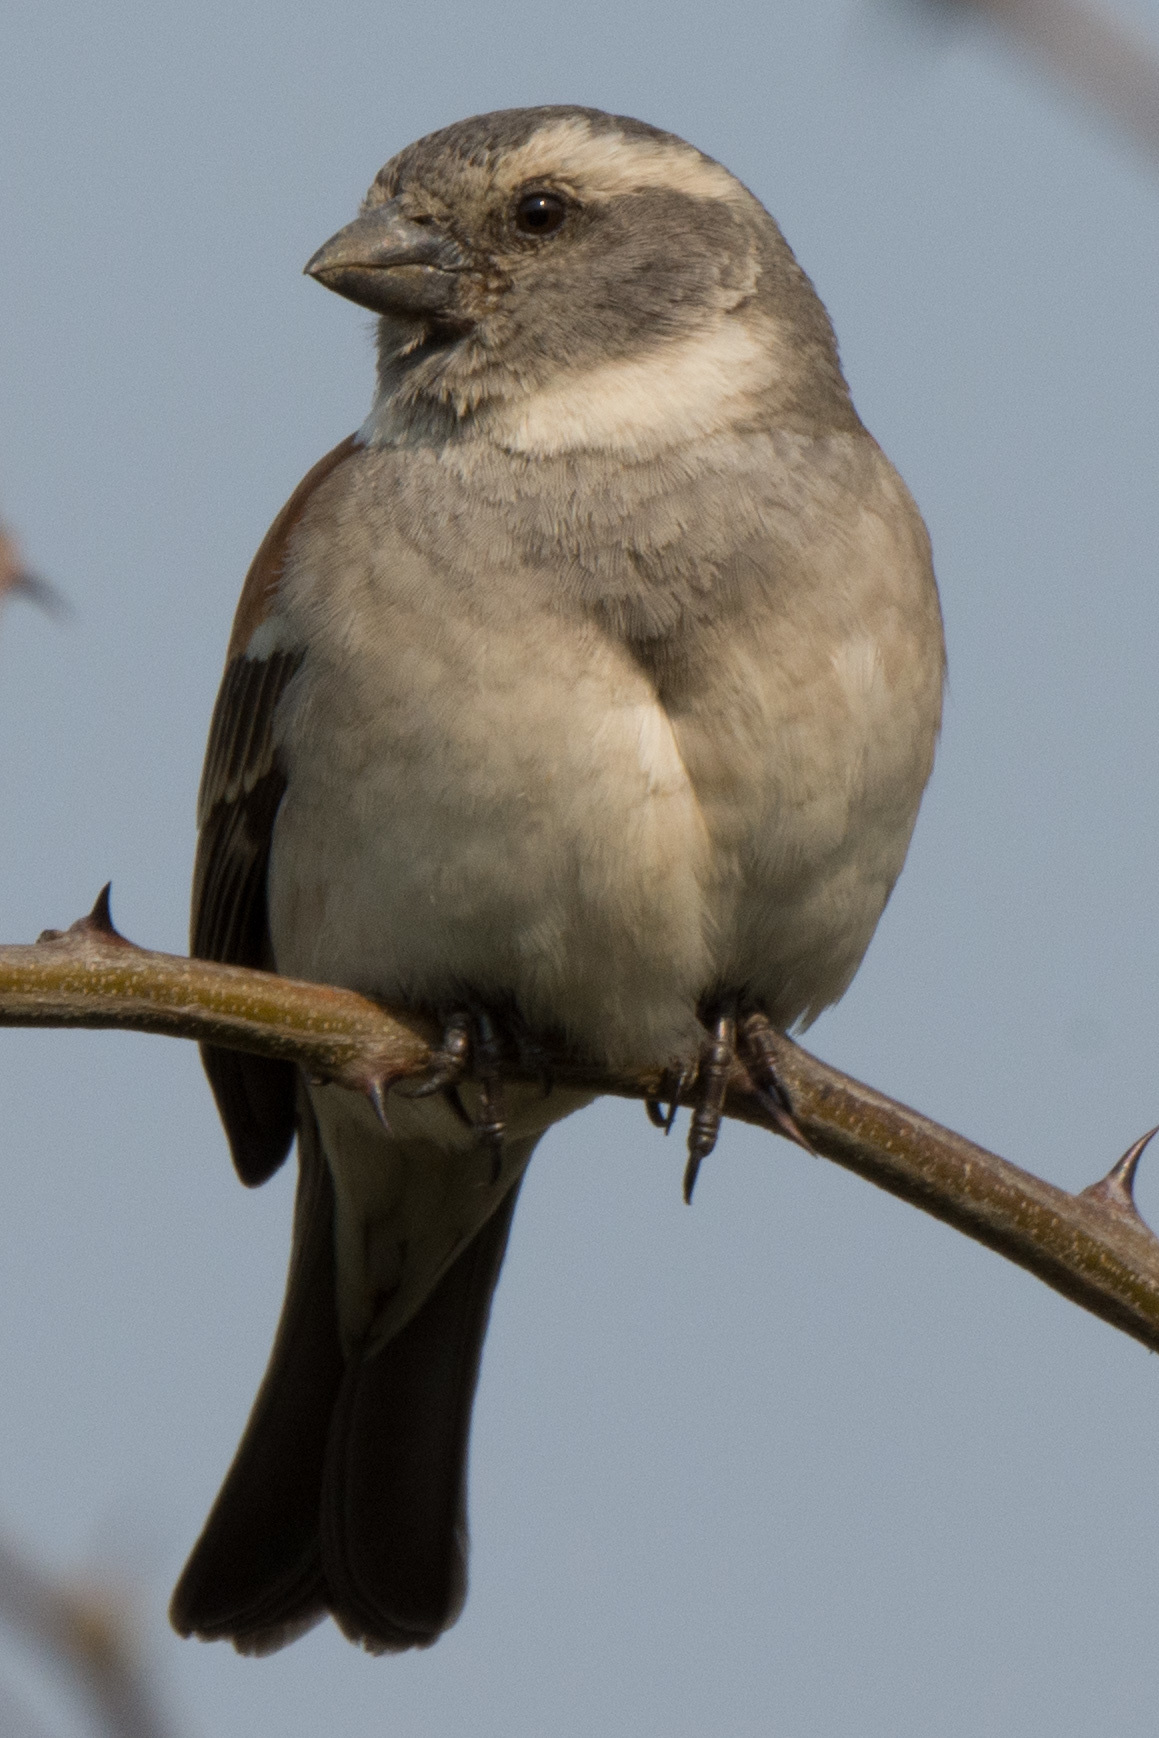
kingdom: Animalia
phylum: Chordata
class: Aves
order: Passeriformes
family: Passeridae
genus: Passer
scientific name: Passer melanurus
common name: Cape sparrow
